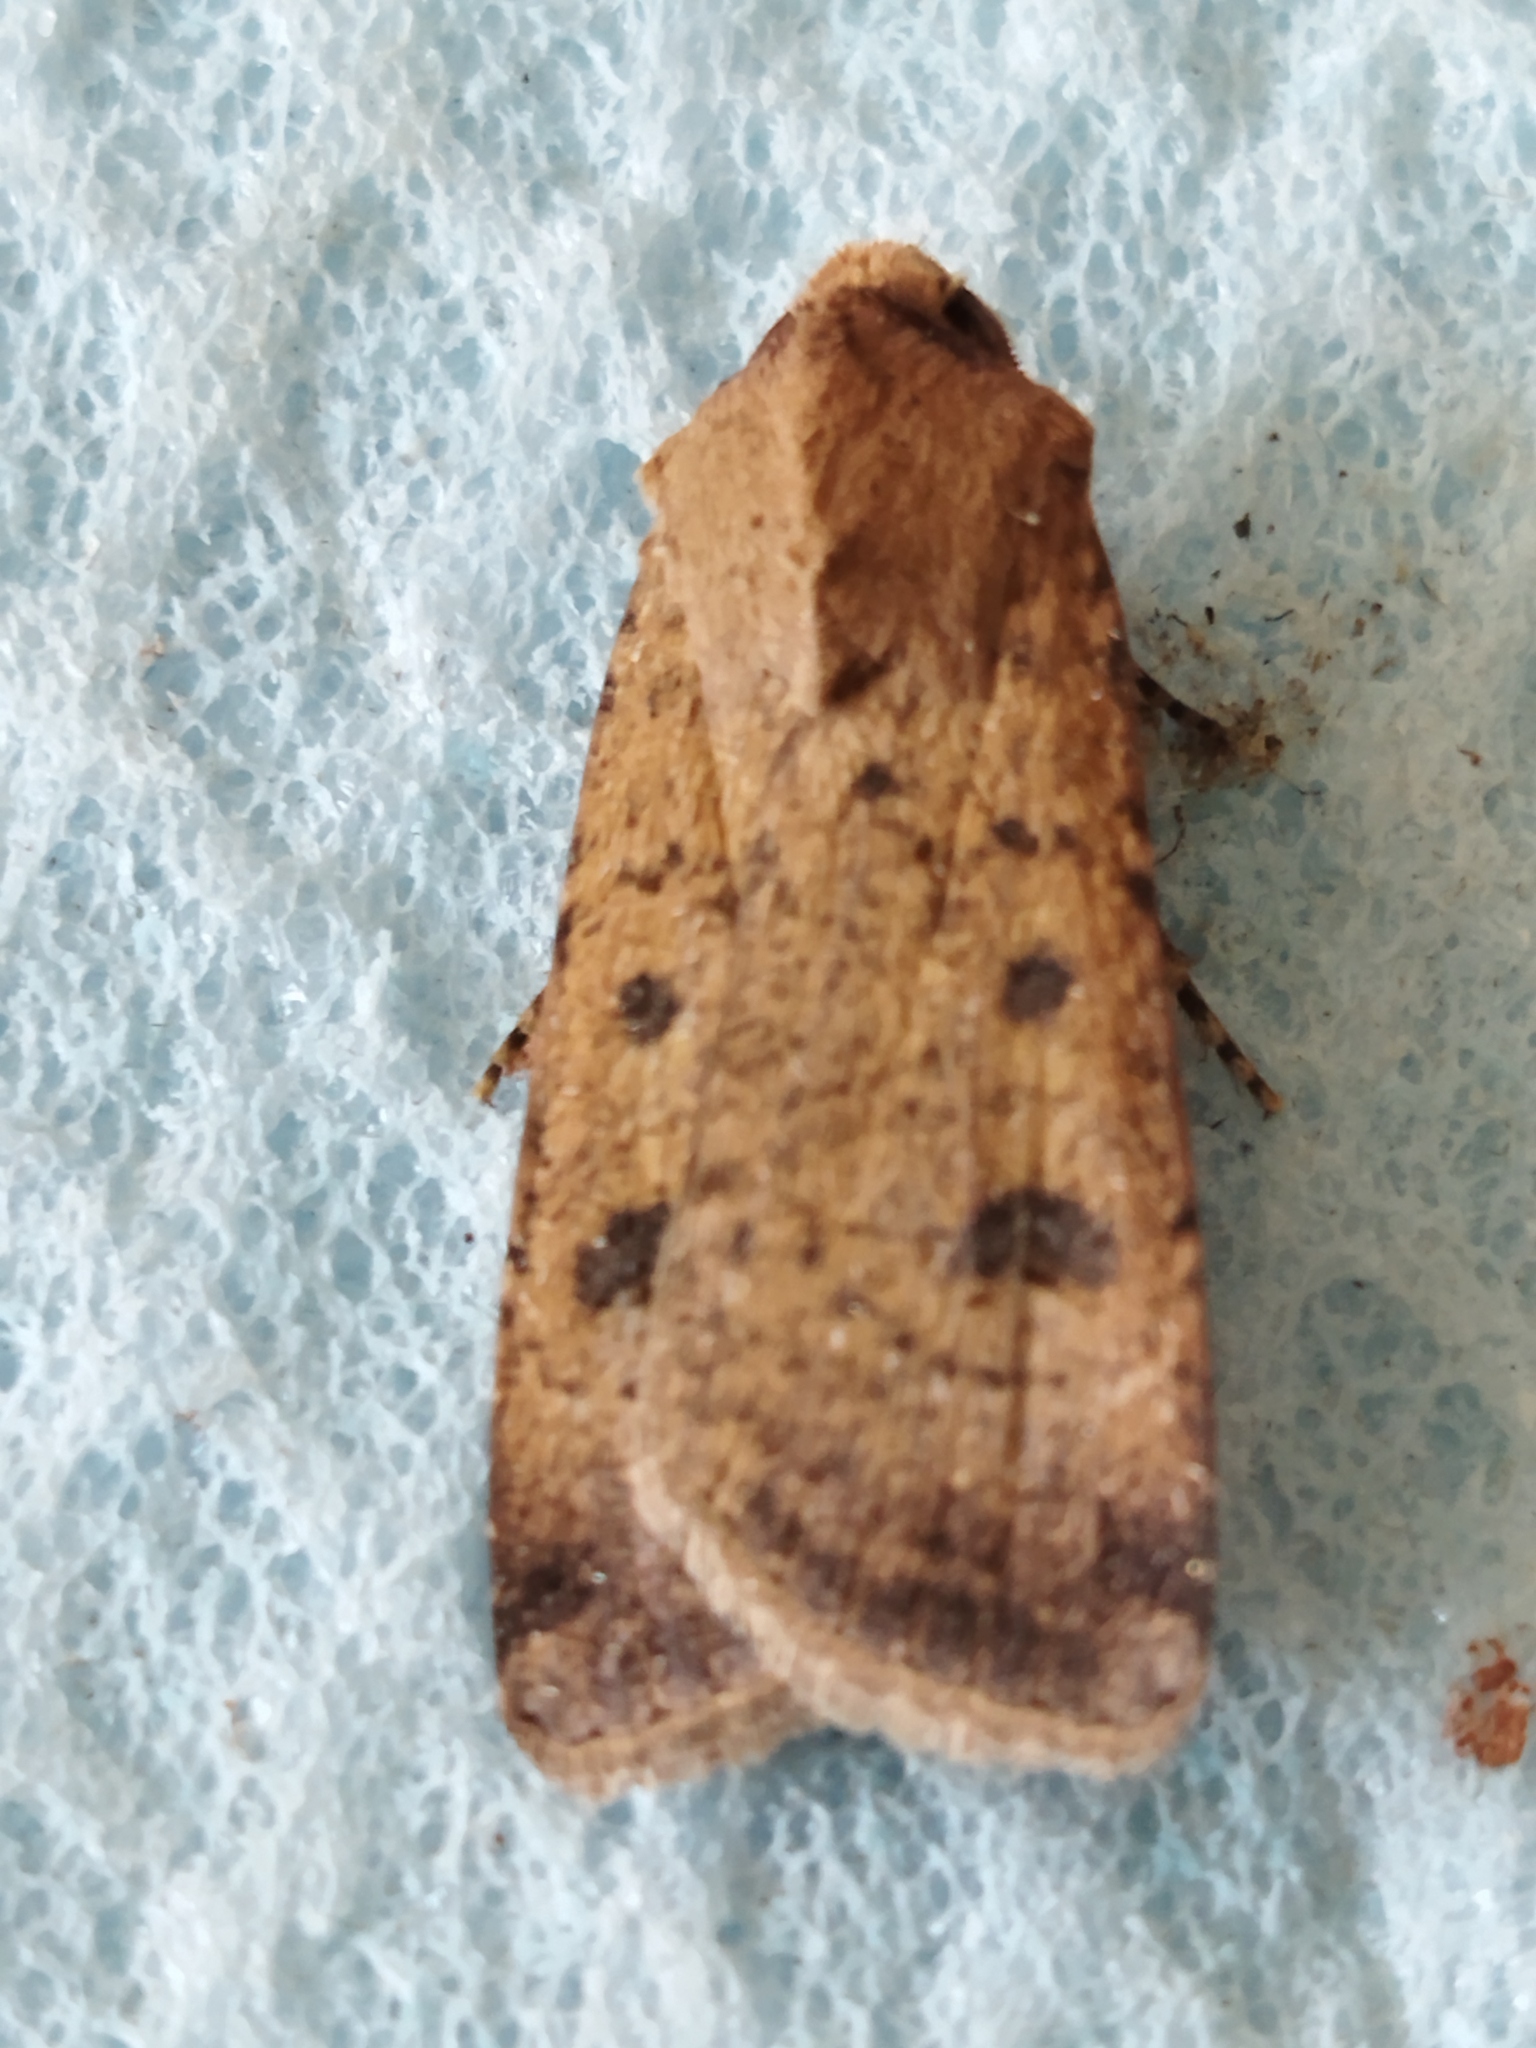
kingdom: Animalia
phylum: Arthropoda
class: Insecta
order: Lepidoptera
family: Noctuidae
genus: Agrotis
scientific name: Agrotis trux
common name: Crescent dart
